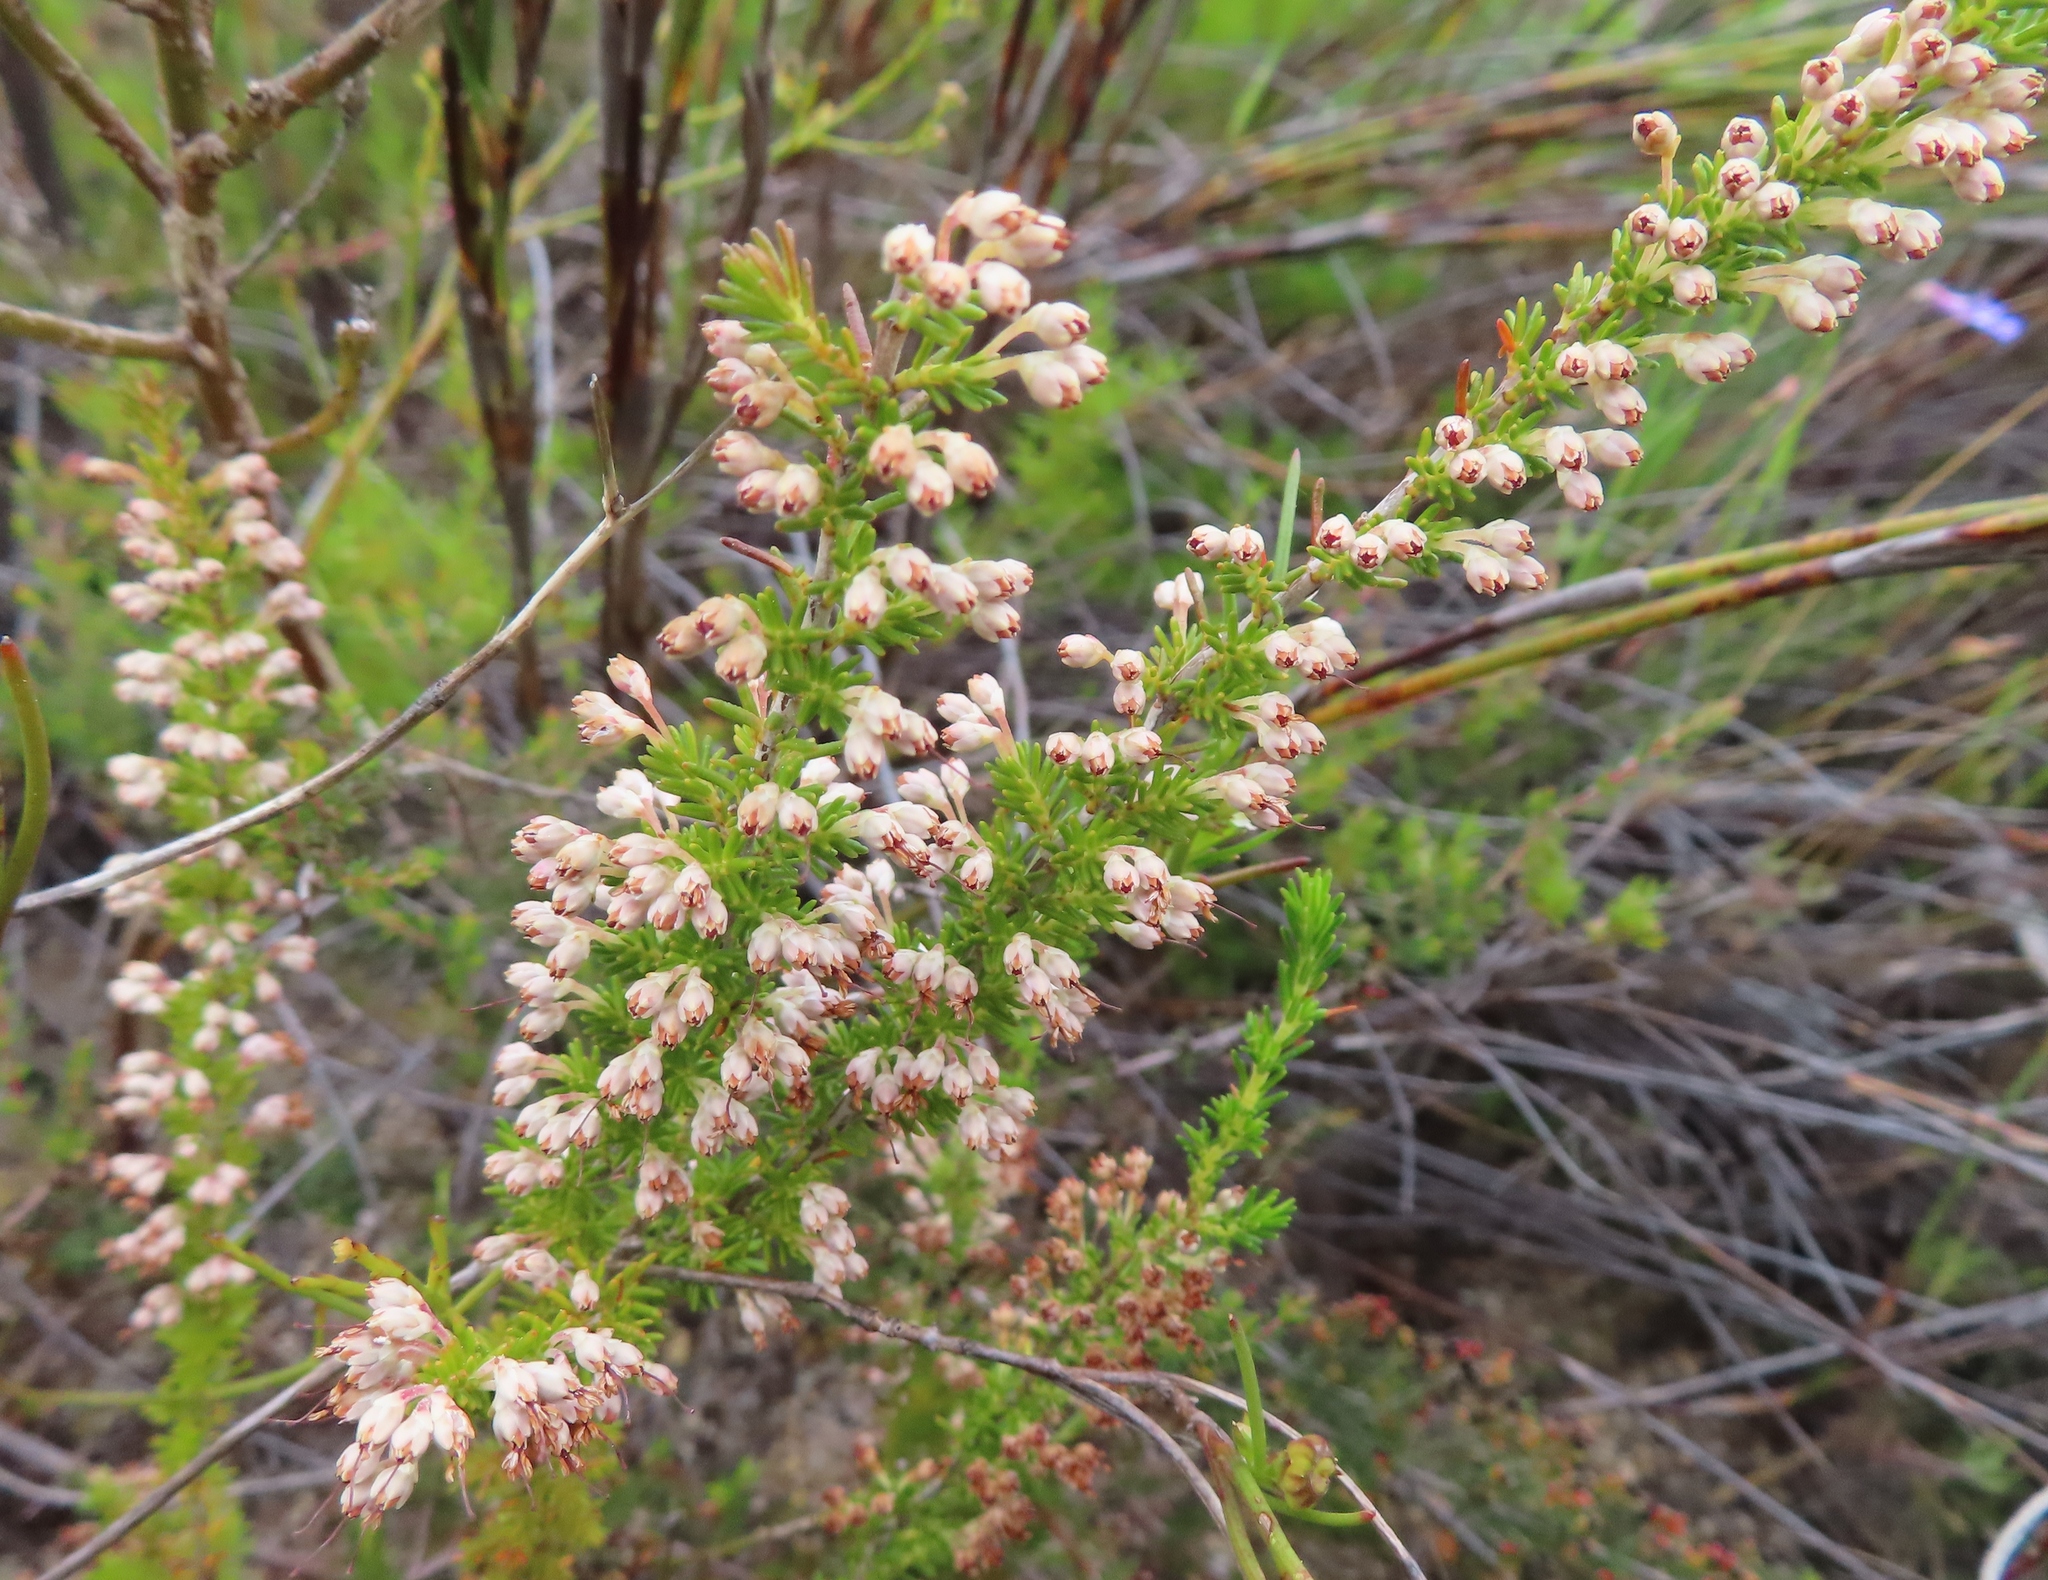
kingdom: Plantae
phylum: Tracheophyta
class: Magnoliopsida
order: Ericales
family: Ericaceae
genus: Erica
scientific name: Erica imbricata
